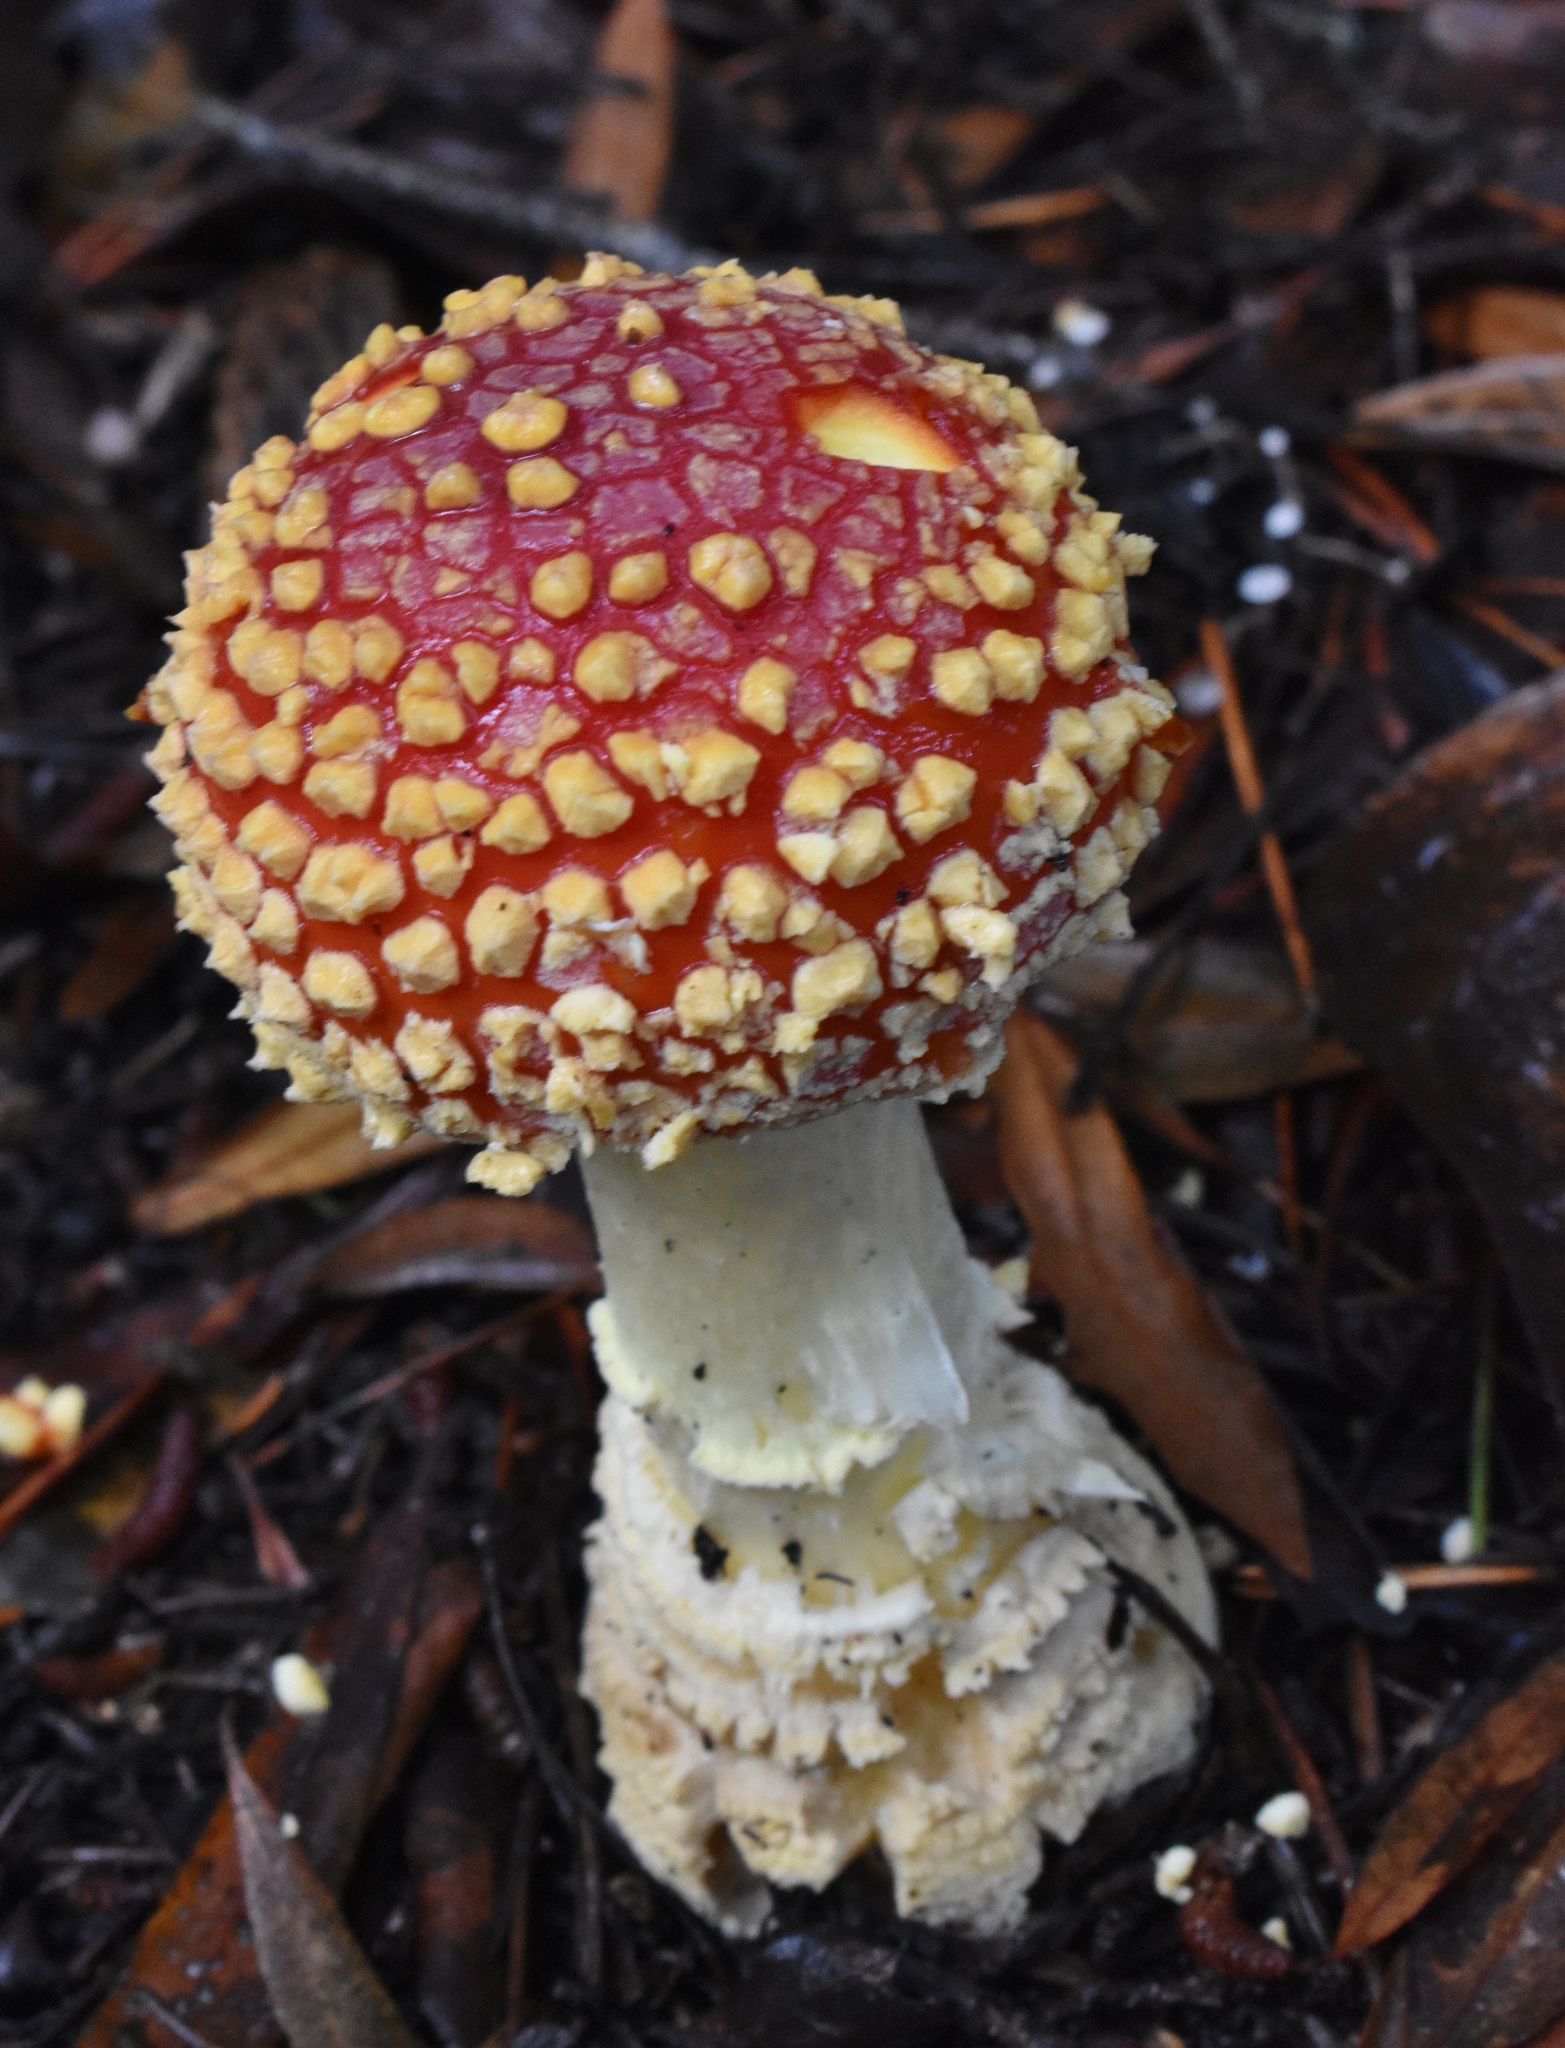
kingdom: Fungi
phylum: Basidiomycota
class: Agaricomycetes
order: Agaricales
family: Amanitaceae
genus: Amanita
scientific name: Amanita muscaria
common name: Fly agaric
